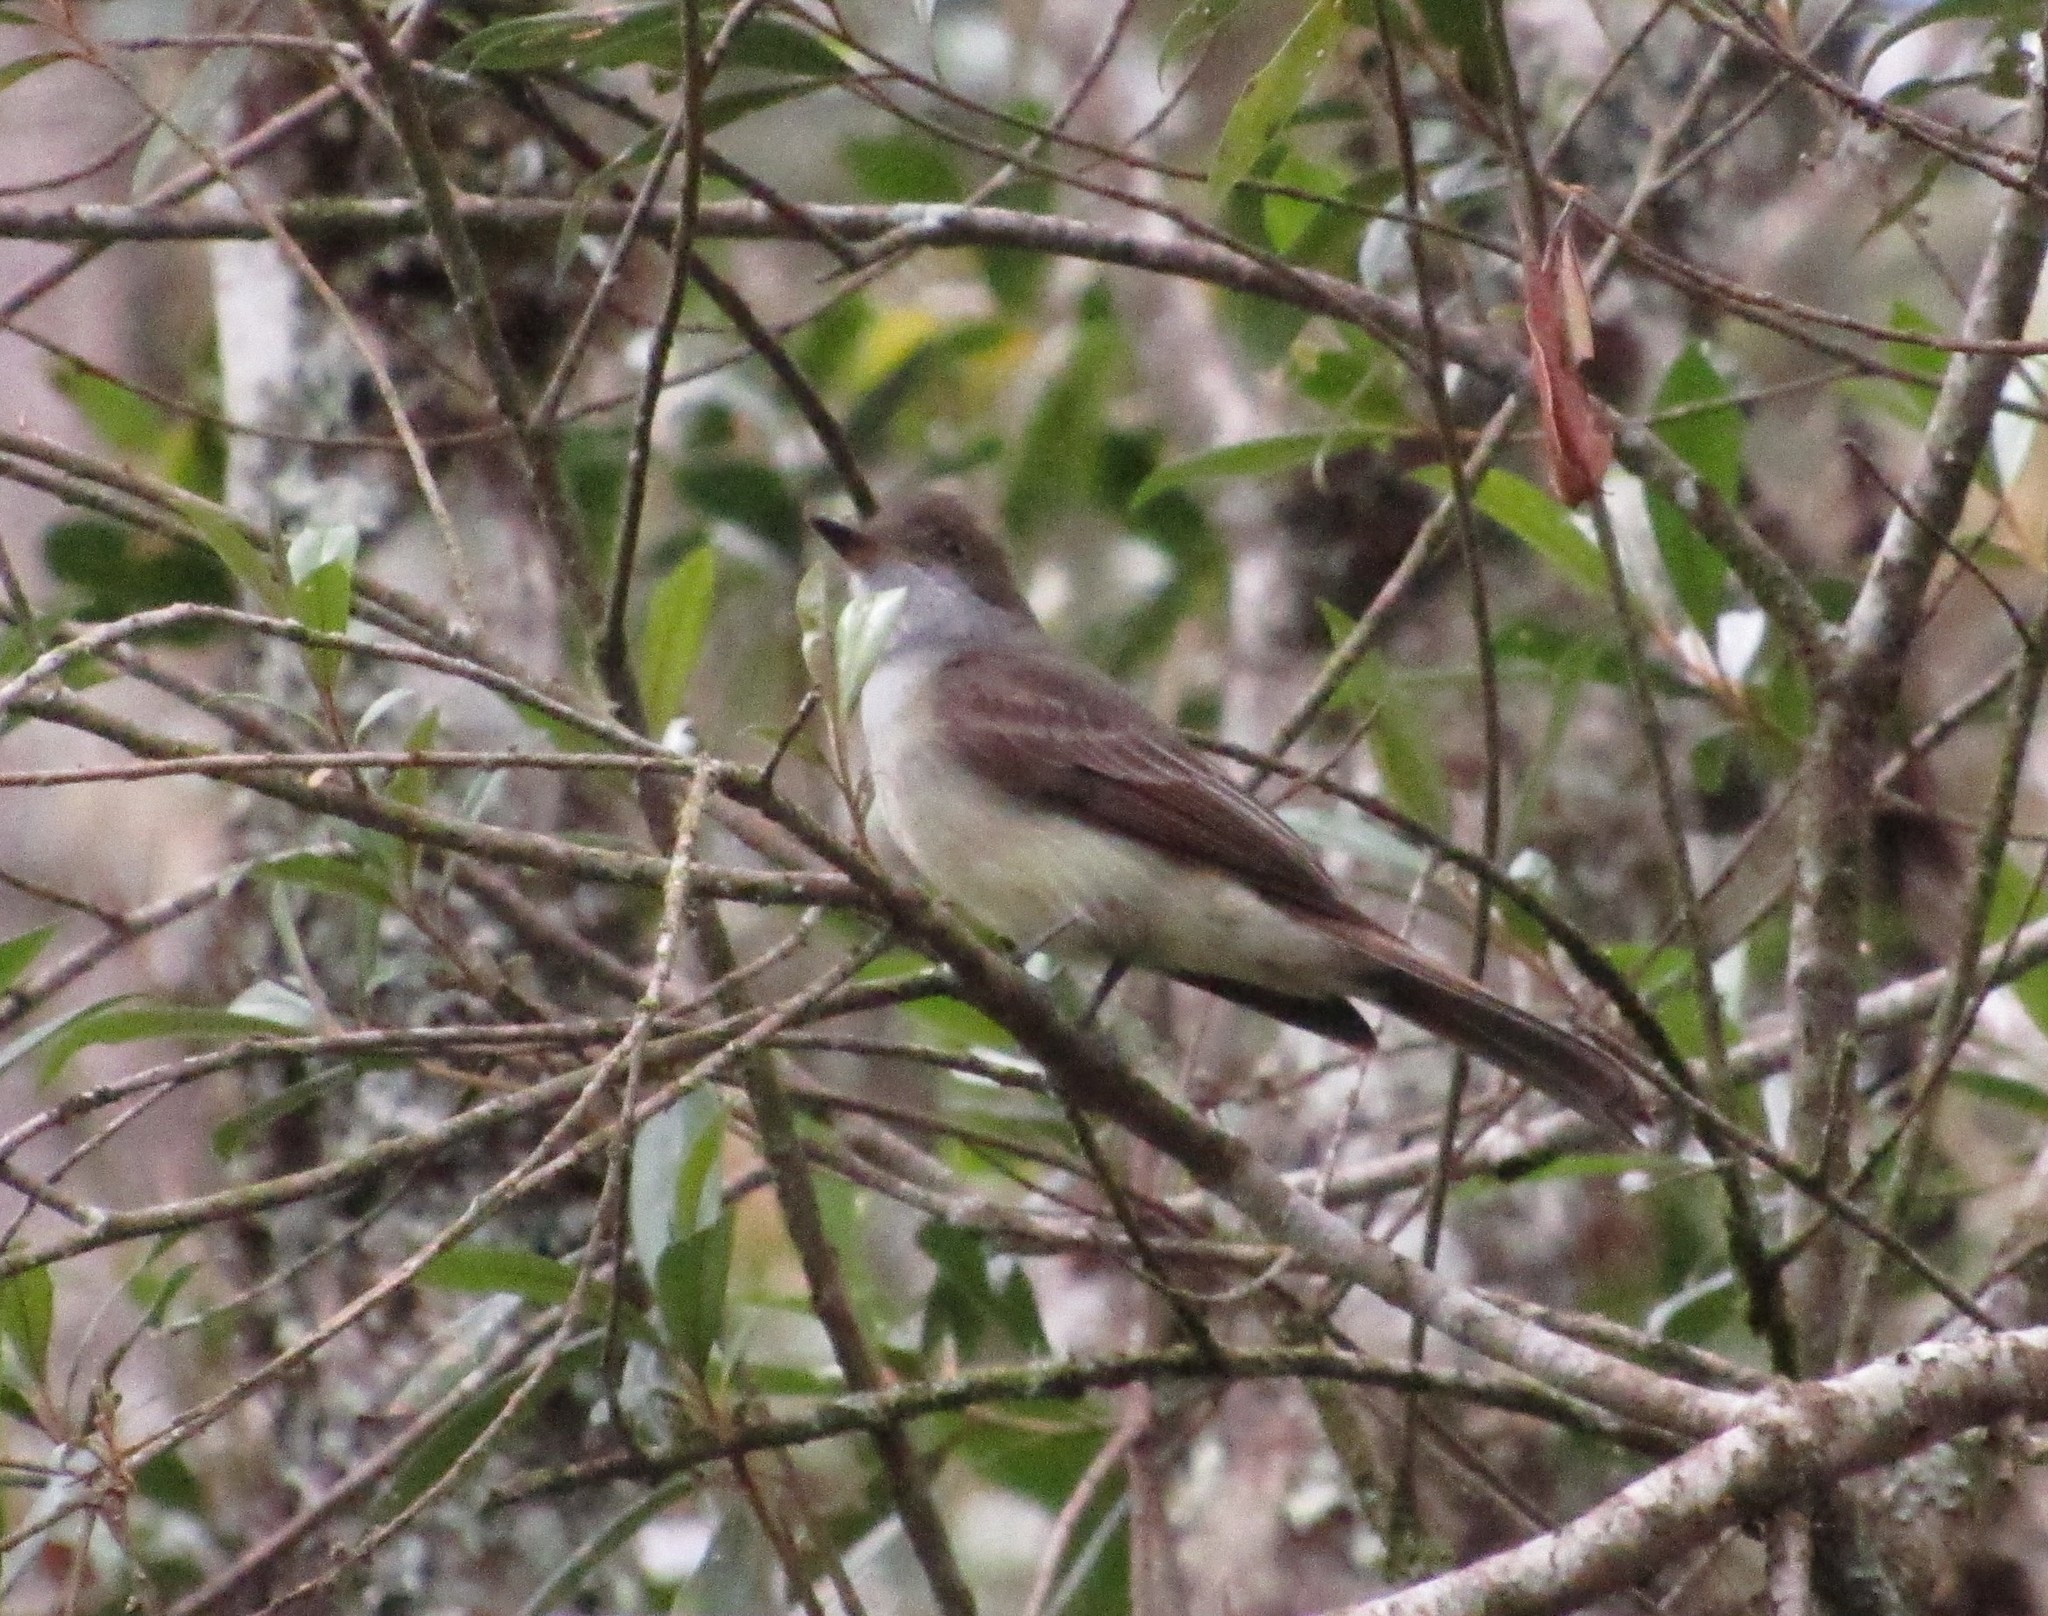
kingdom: Animalia
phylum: Chordata
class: Aves
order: Passeriformes
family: Tyrannidae
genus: Myiarchus
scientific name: Myiarchus swainsoni
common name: Swainson's flycatcher
